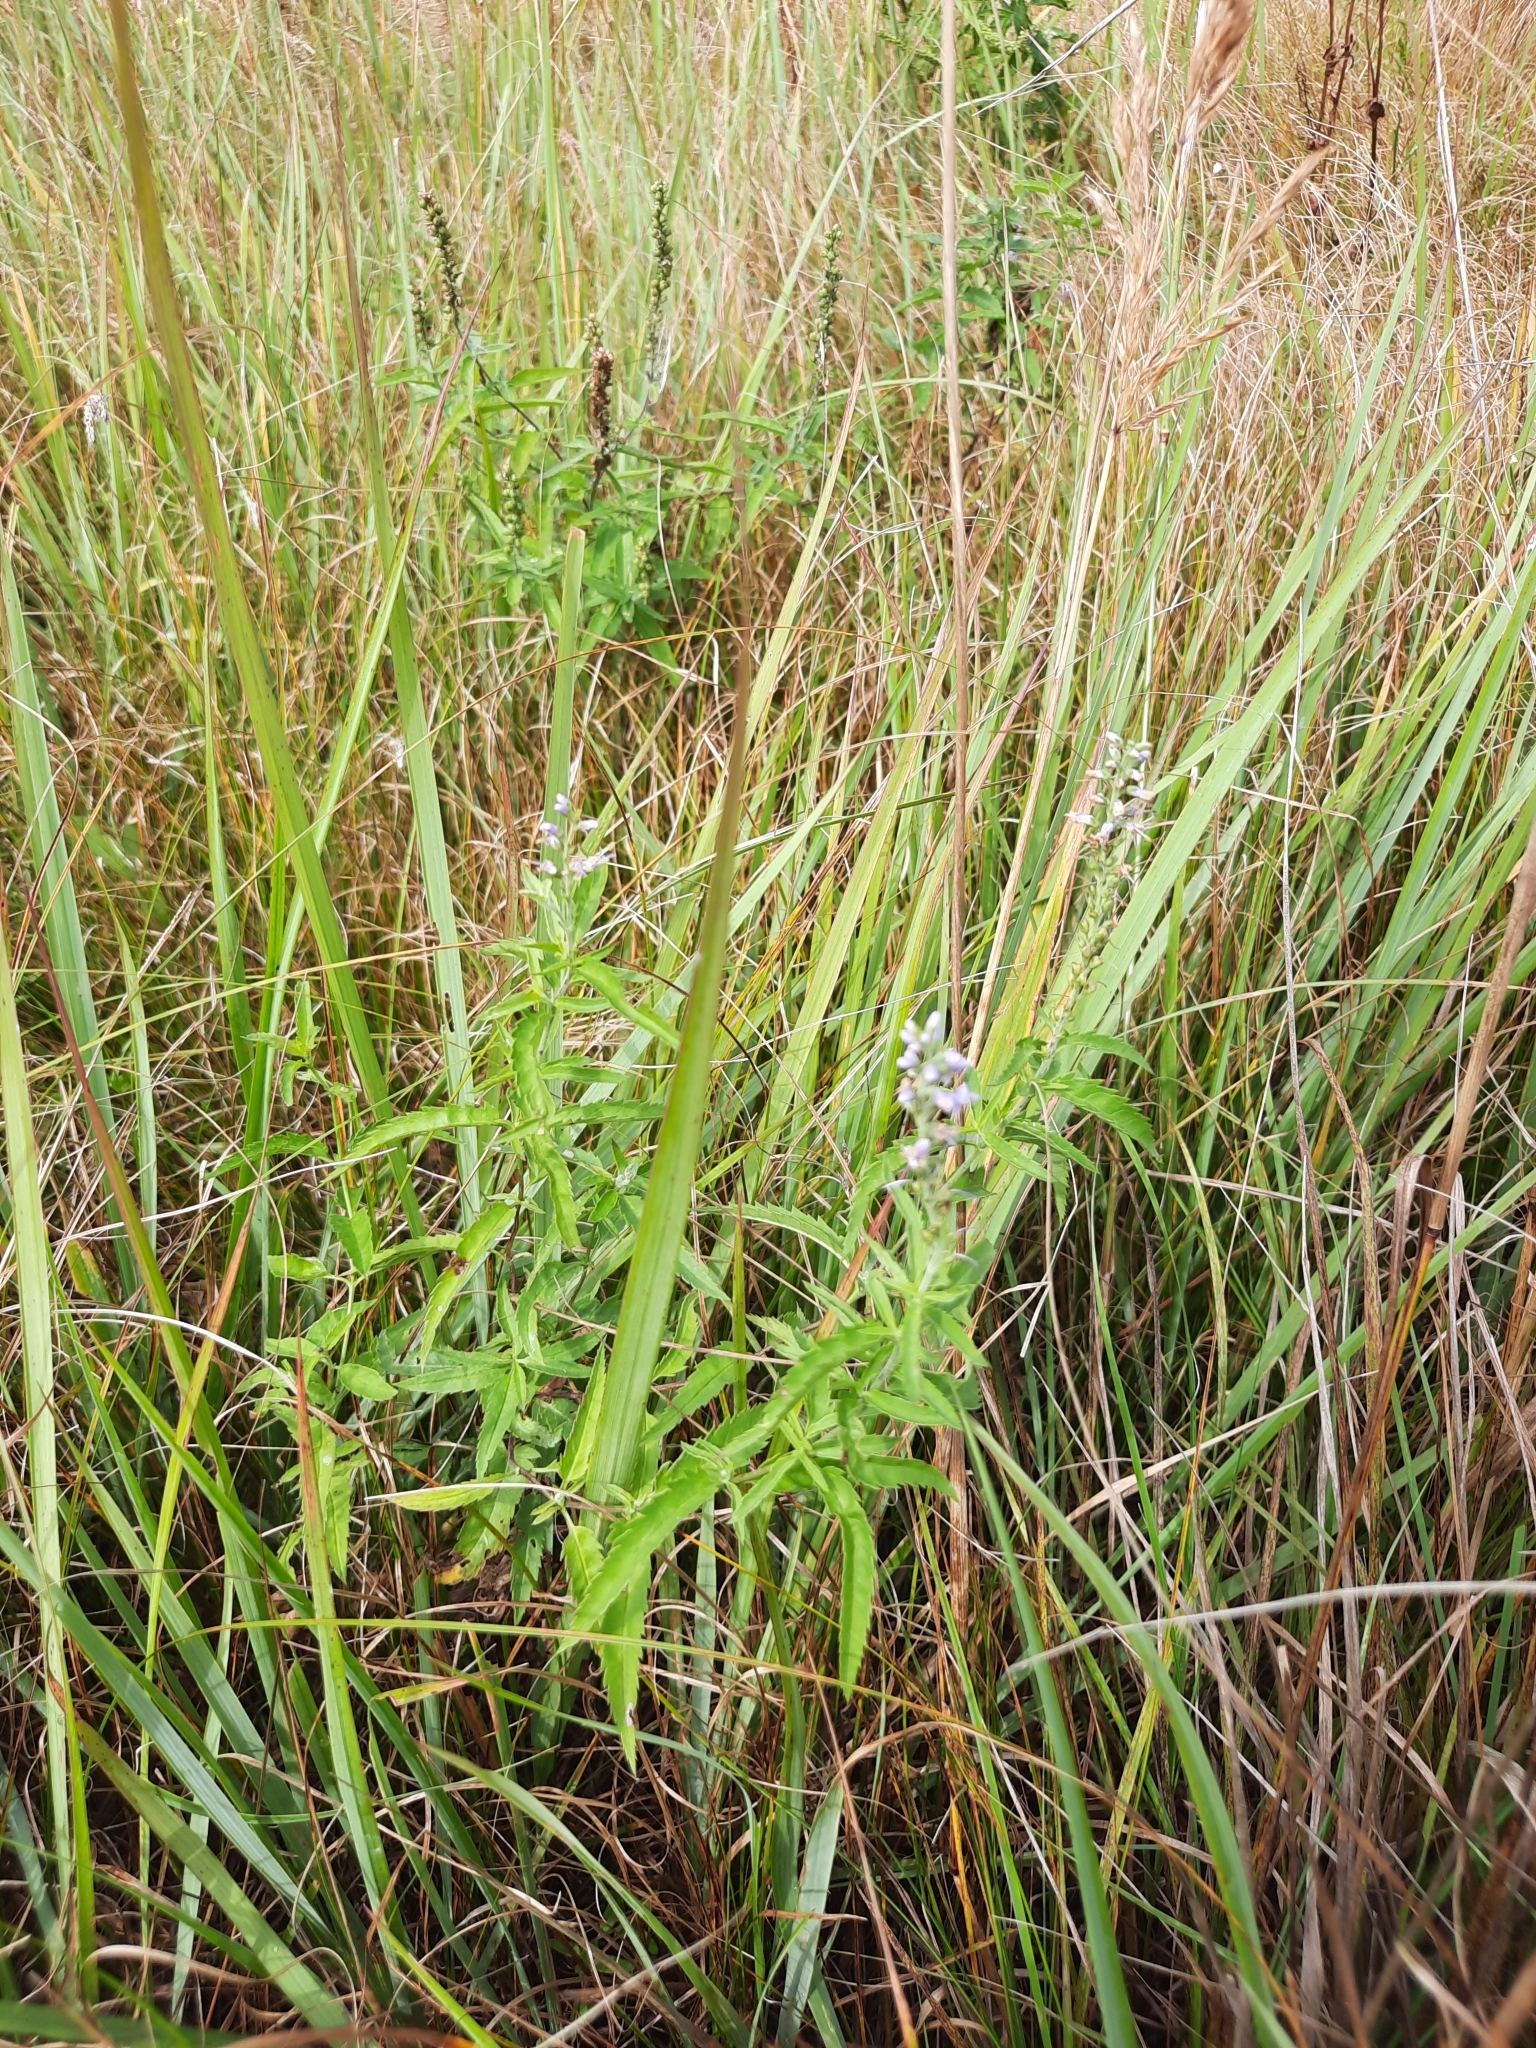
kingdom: Plantae
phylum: Tracheophyta
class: Magnoliopsida
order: Lamiales
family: Plantaginaceae
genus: Veronica
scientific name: Veronica longifolia
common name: Garden speedwell
